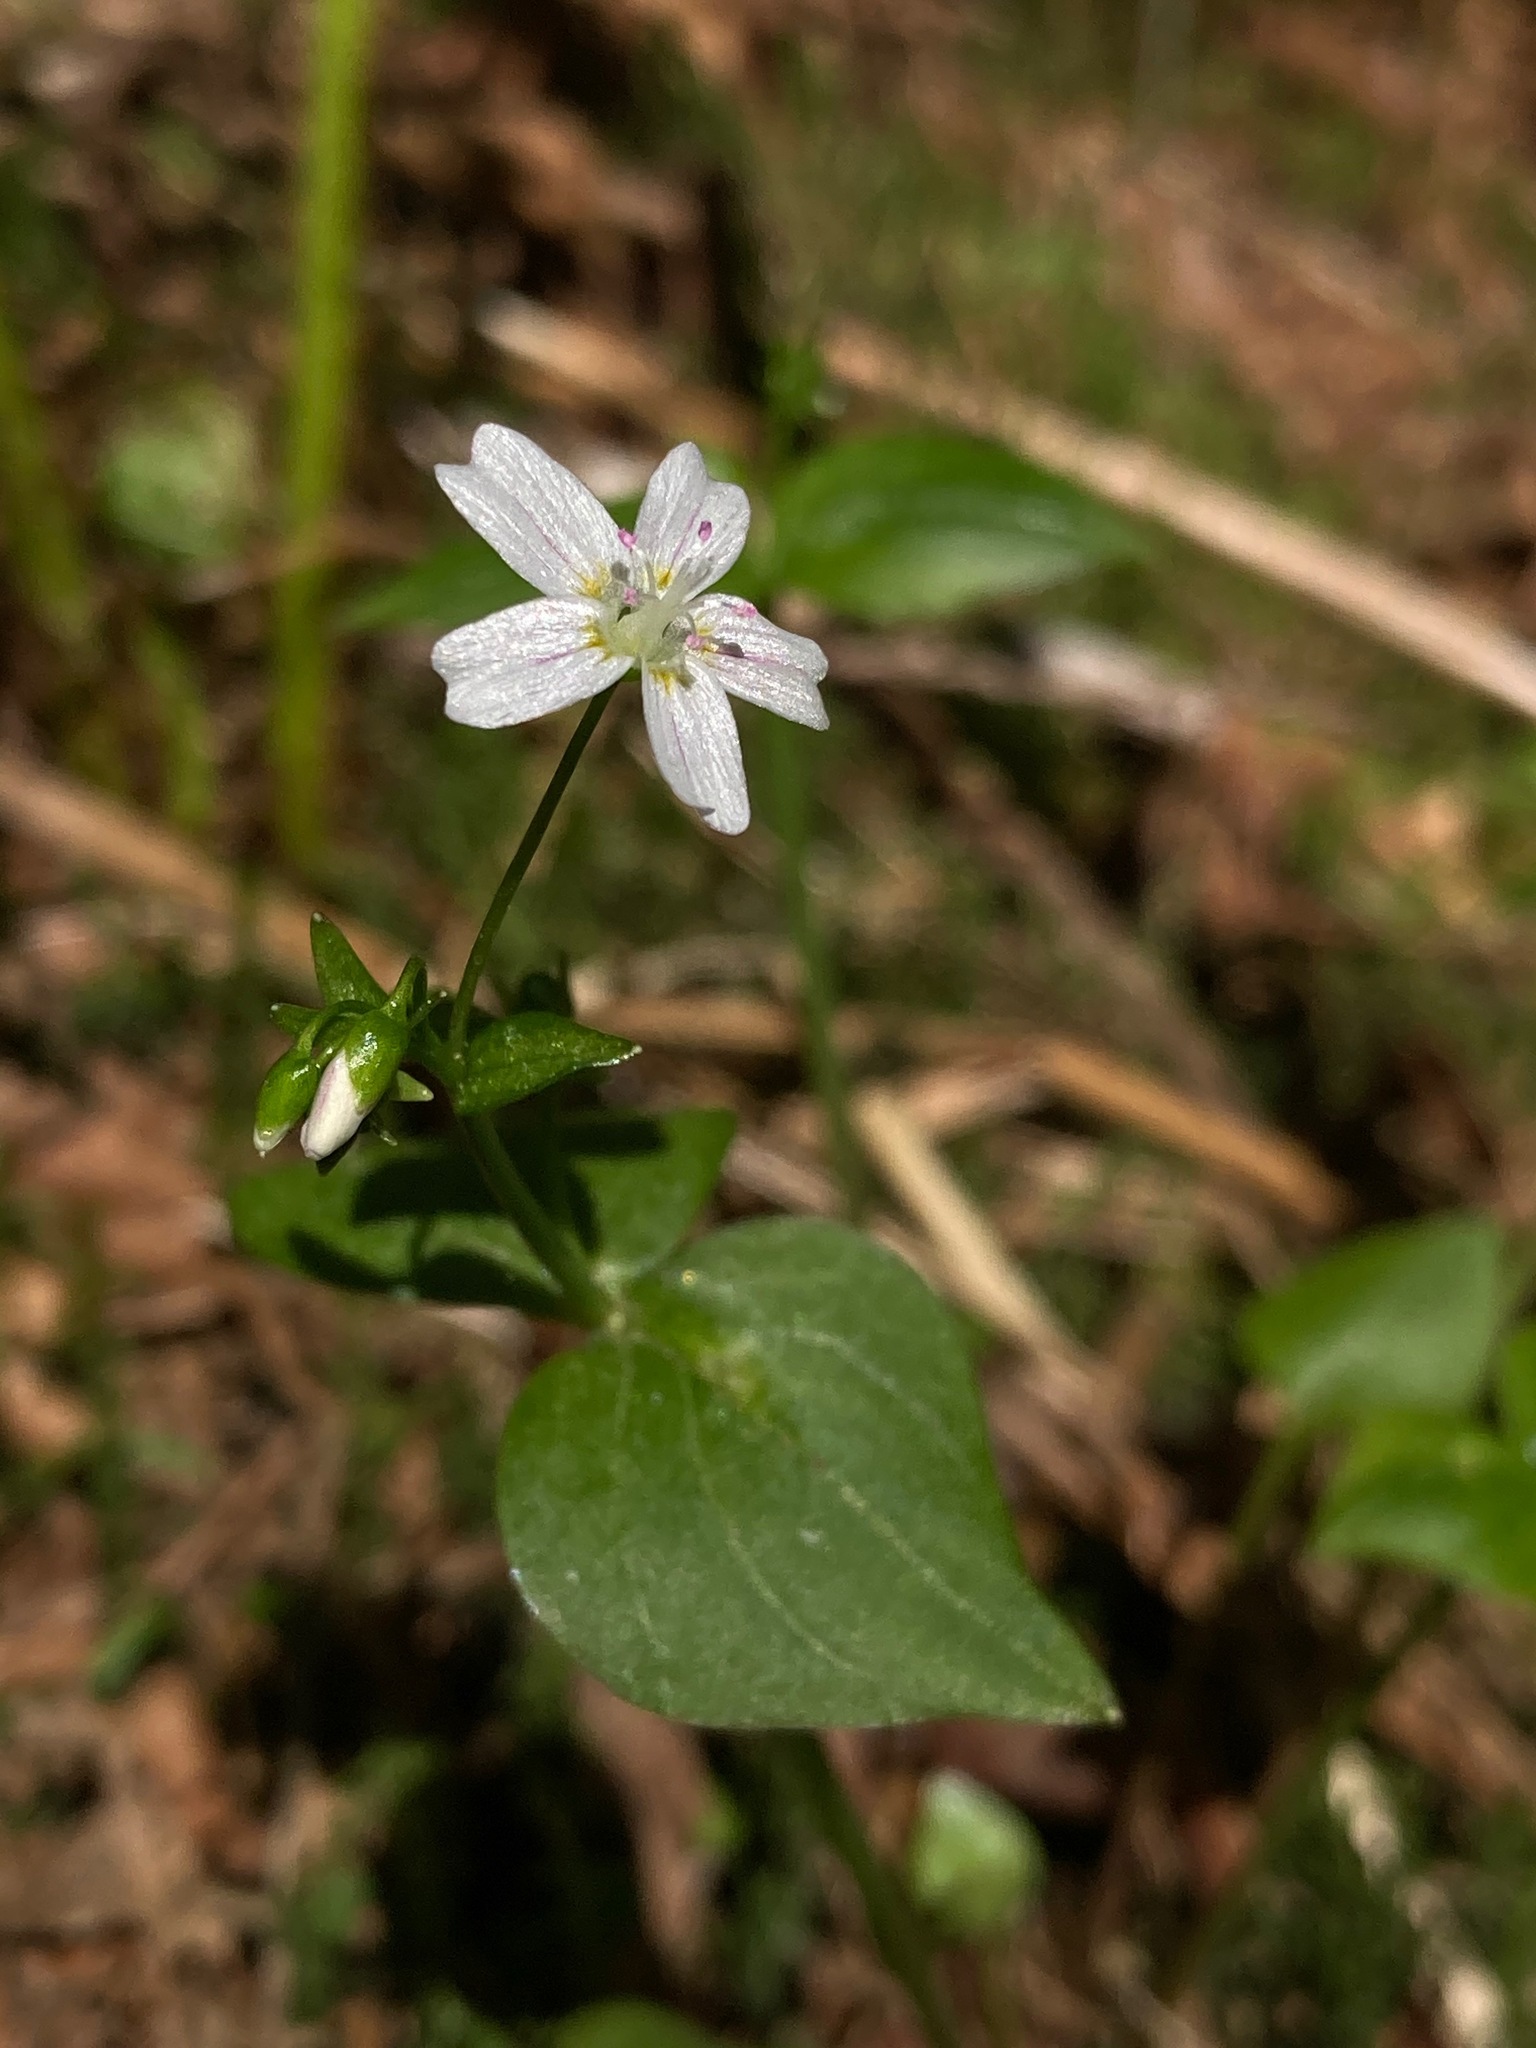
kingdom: Plantae
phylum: Tracheophyta
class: Magnoliopsida
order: Caryophyllales
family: Montiaceae
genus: Claytonia
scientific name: Claytonia sibirica
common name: Pink purslane
